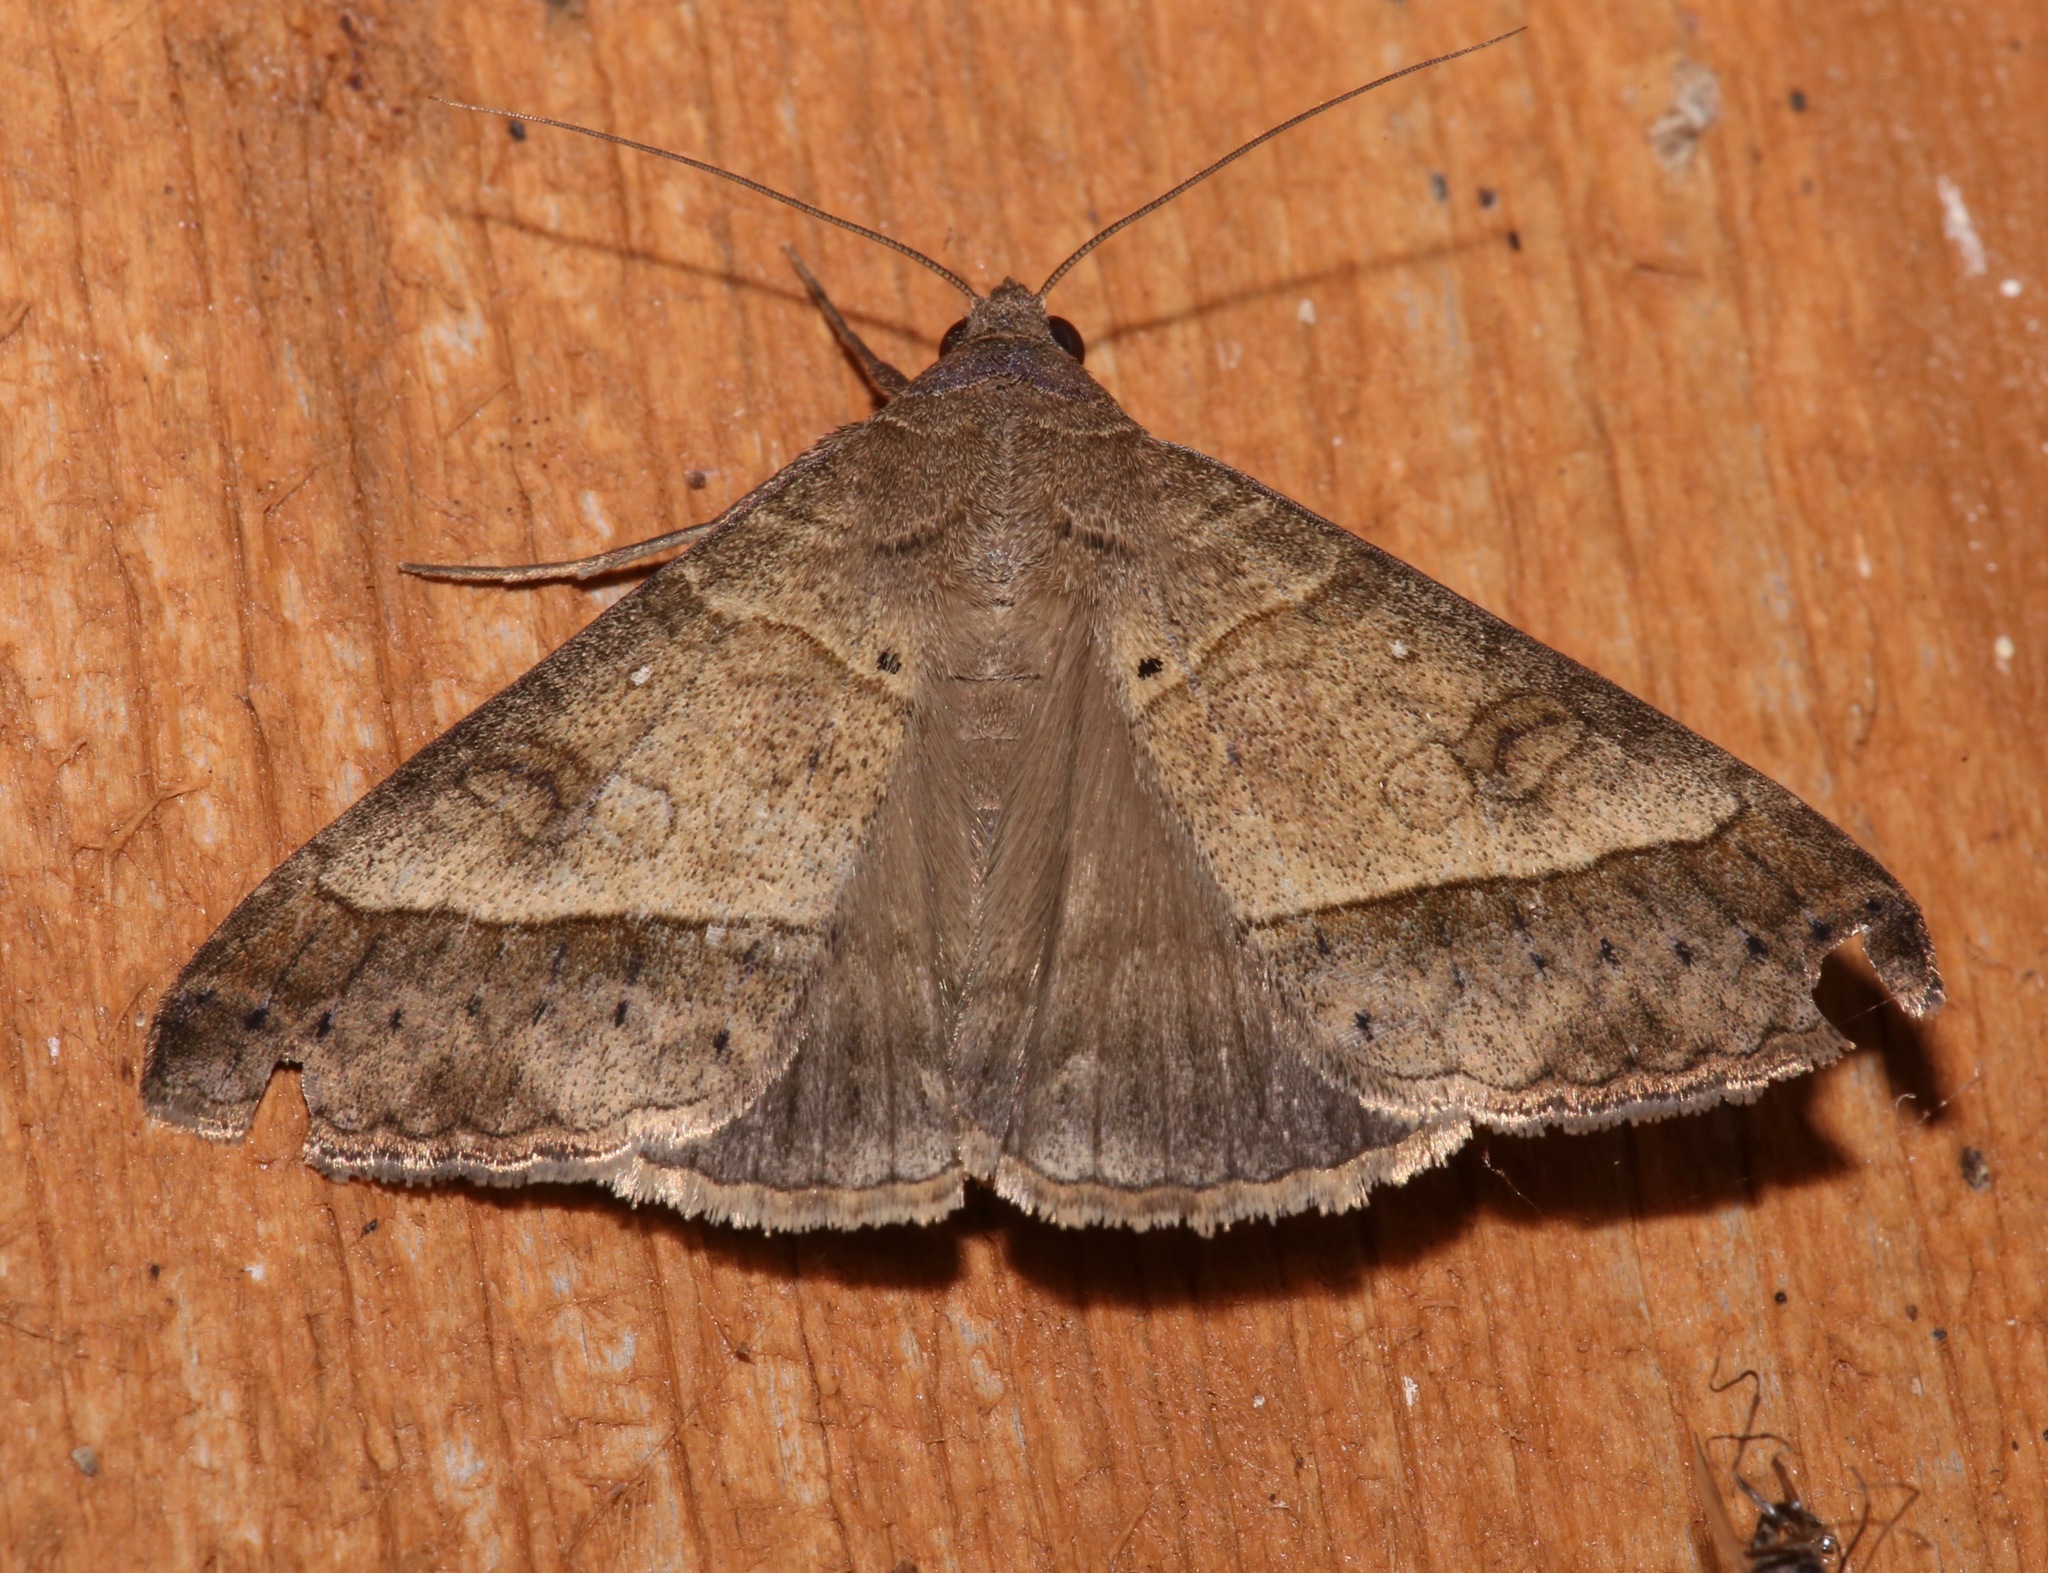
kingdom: Animalia
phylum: Arthropoda
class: Insecta
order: Lepidoptera
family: Erebidae
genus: Mocis
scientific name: Mocis latipes
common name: Striped grass looper
